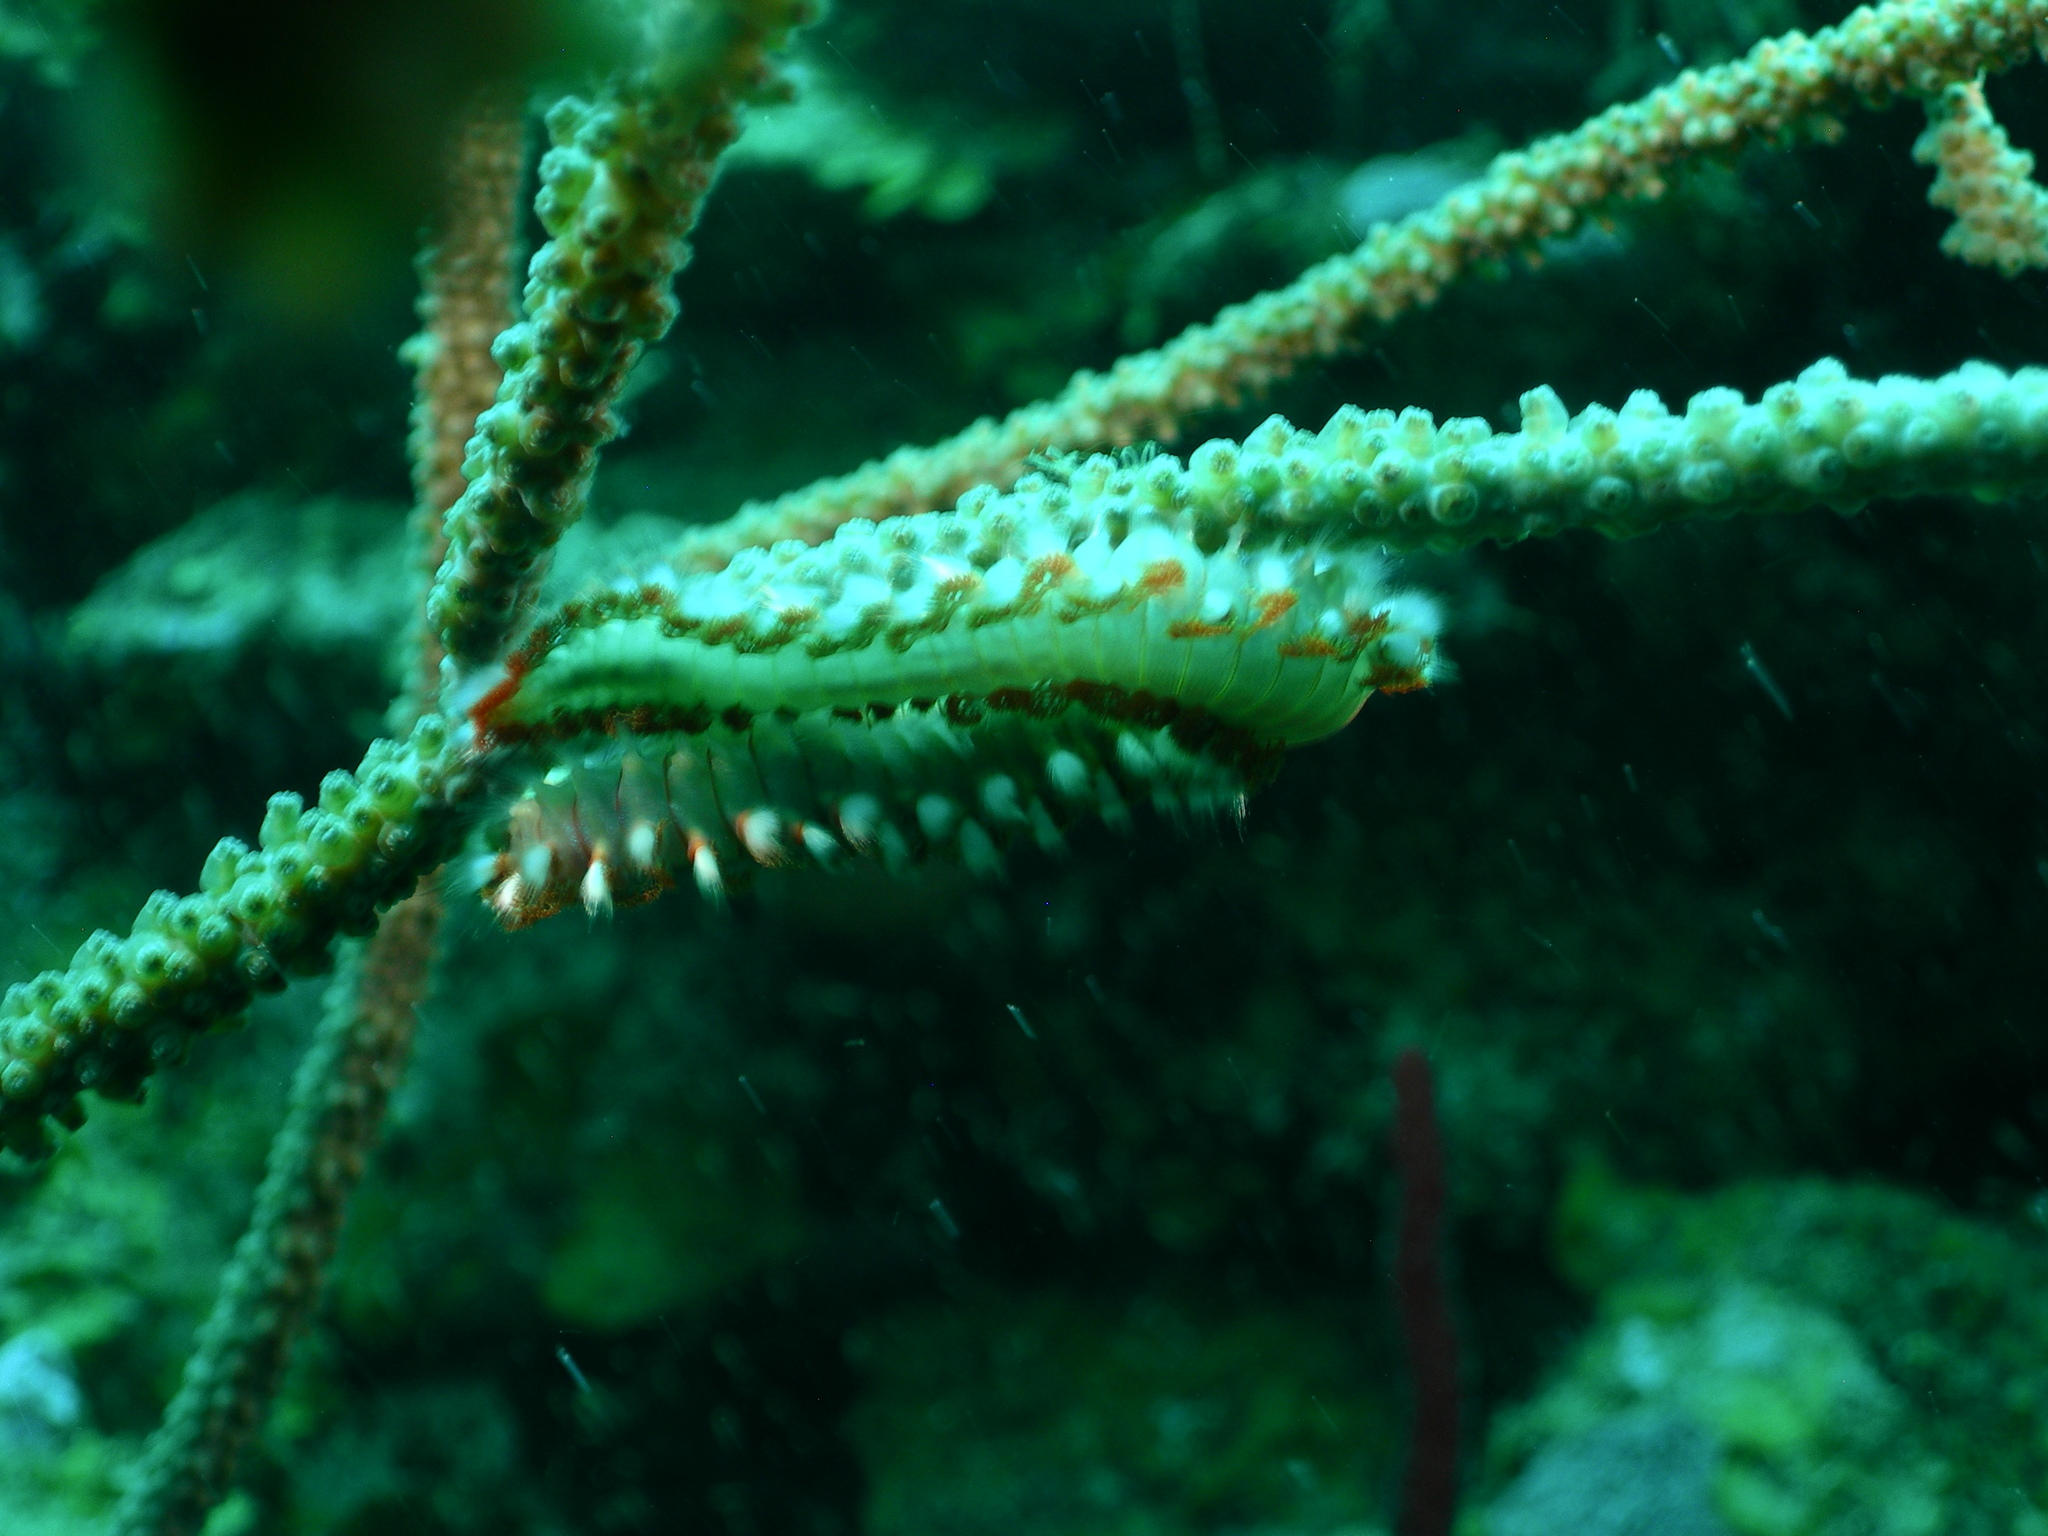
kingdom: Animalia
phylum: Annelida
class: Polychaeta
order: Amphinomida
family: Amphinomidae
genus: Hermodice
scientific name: Hermodice carunculata
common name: Bearded fireworm
